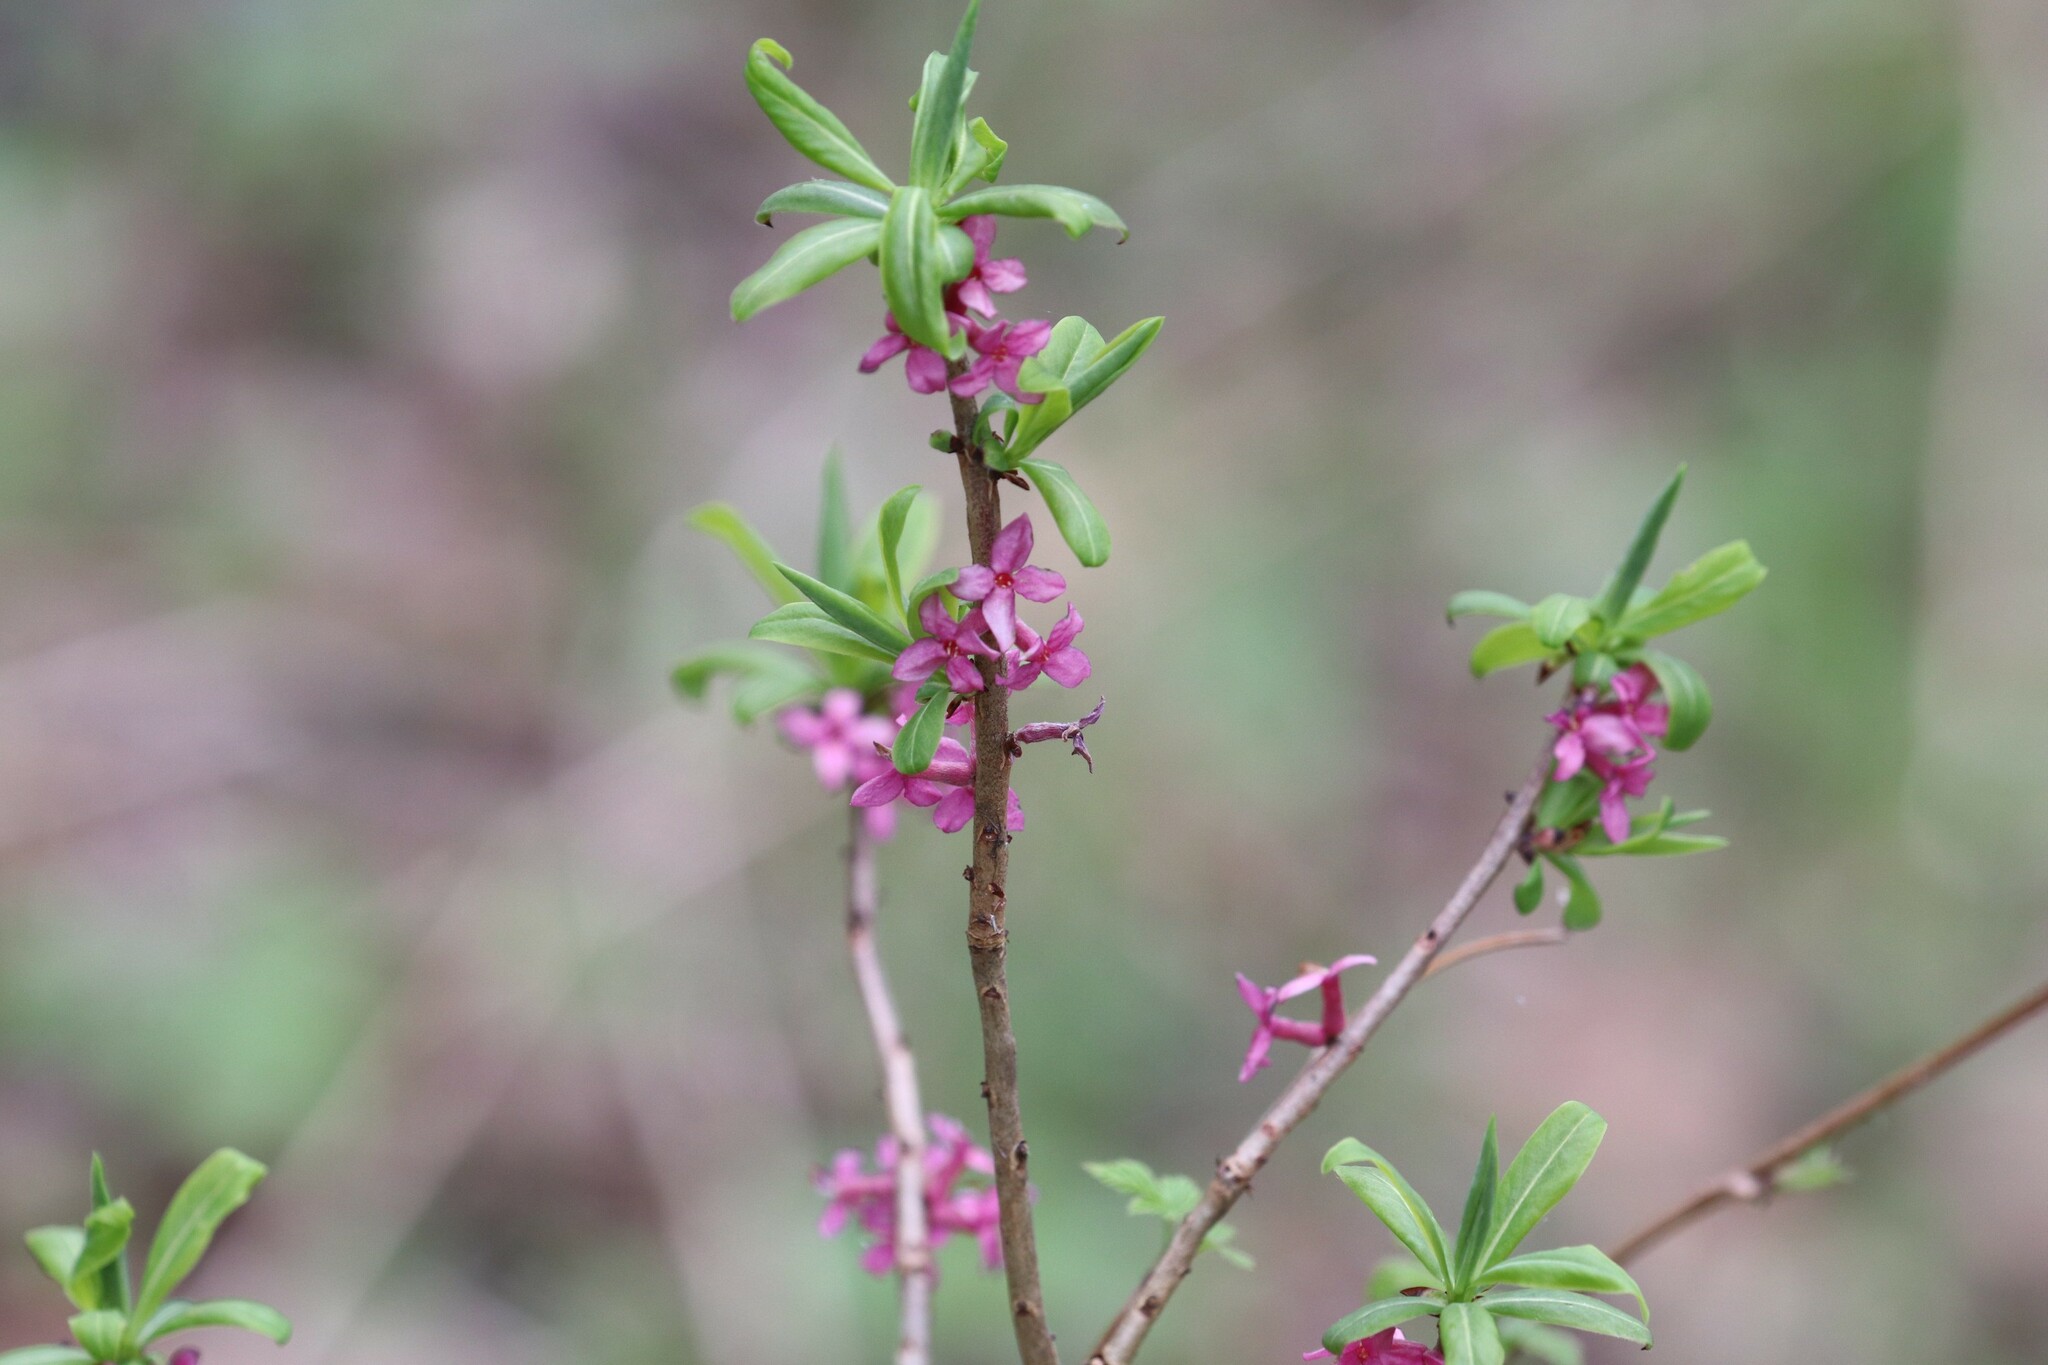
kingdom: Plantae
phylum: Tracheophyta
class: Magnoliopsida
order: Malvales
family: Thymelaeaceae
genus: Daphne
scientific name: Daphne mezereum
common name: Mezereon
